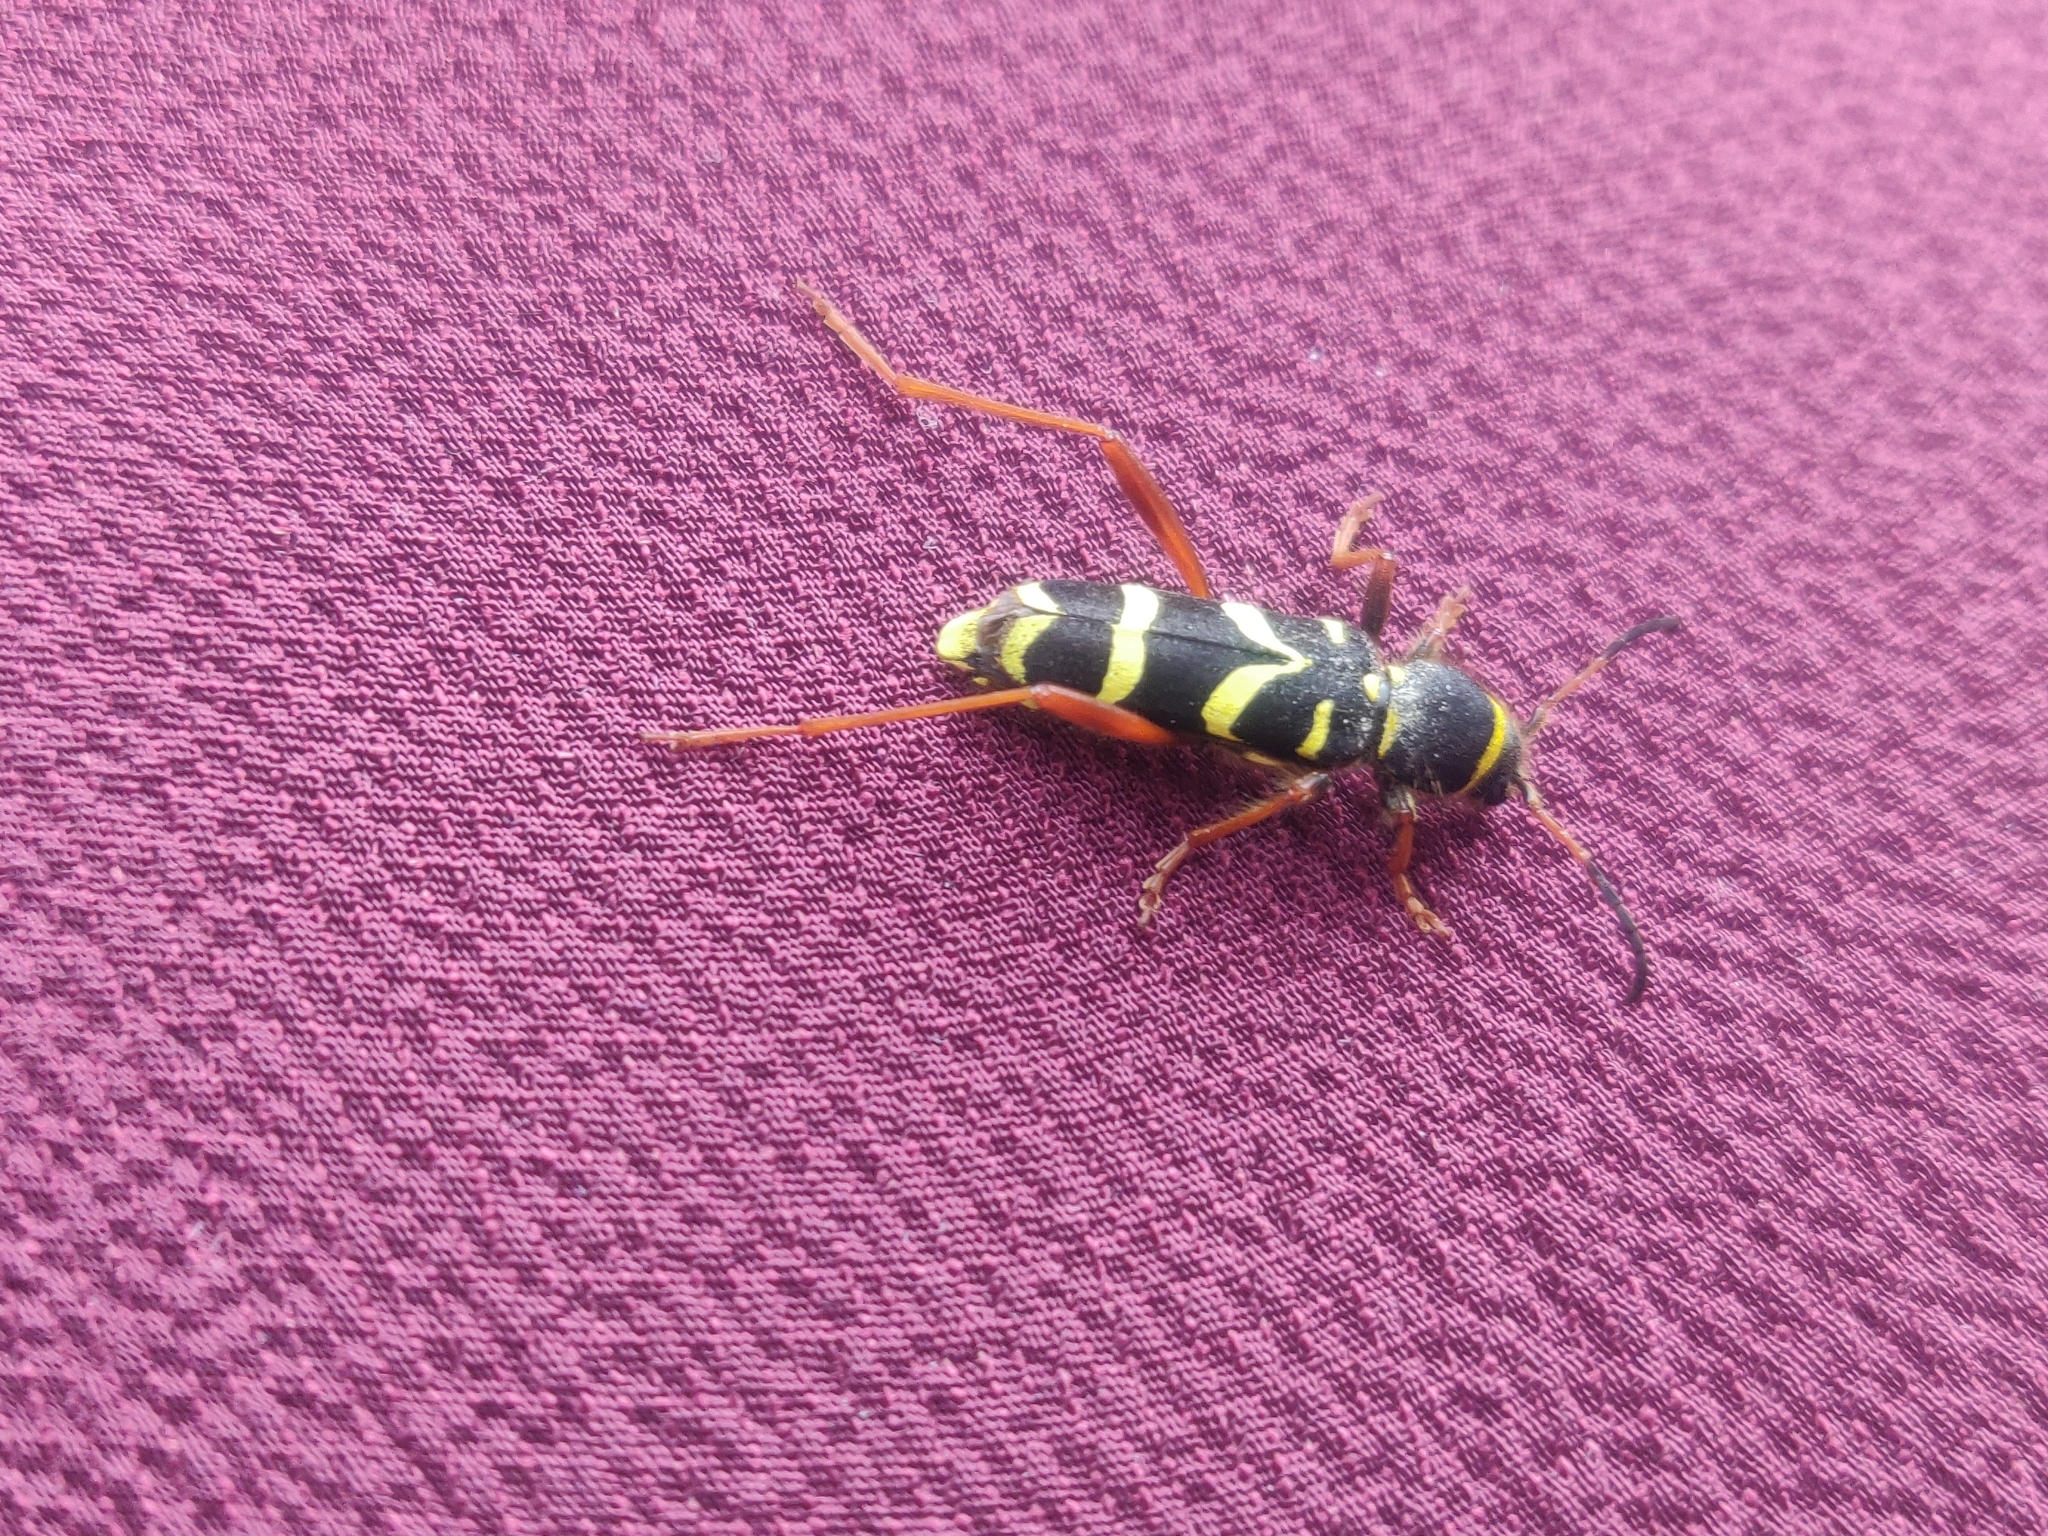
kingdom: Animalia
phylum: Arthropoda
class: Insecta
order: Coleoptera
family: Cerambycidae
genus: Clytus
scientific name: Clytus arietis
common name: Wasp beetle
